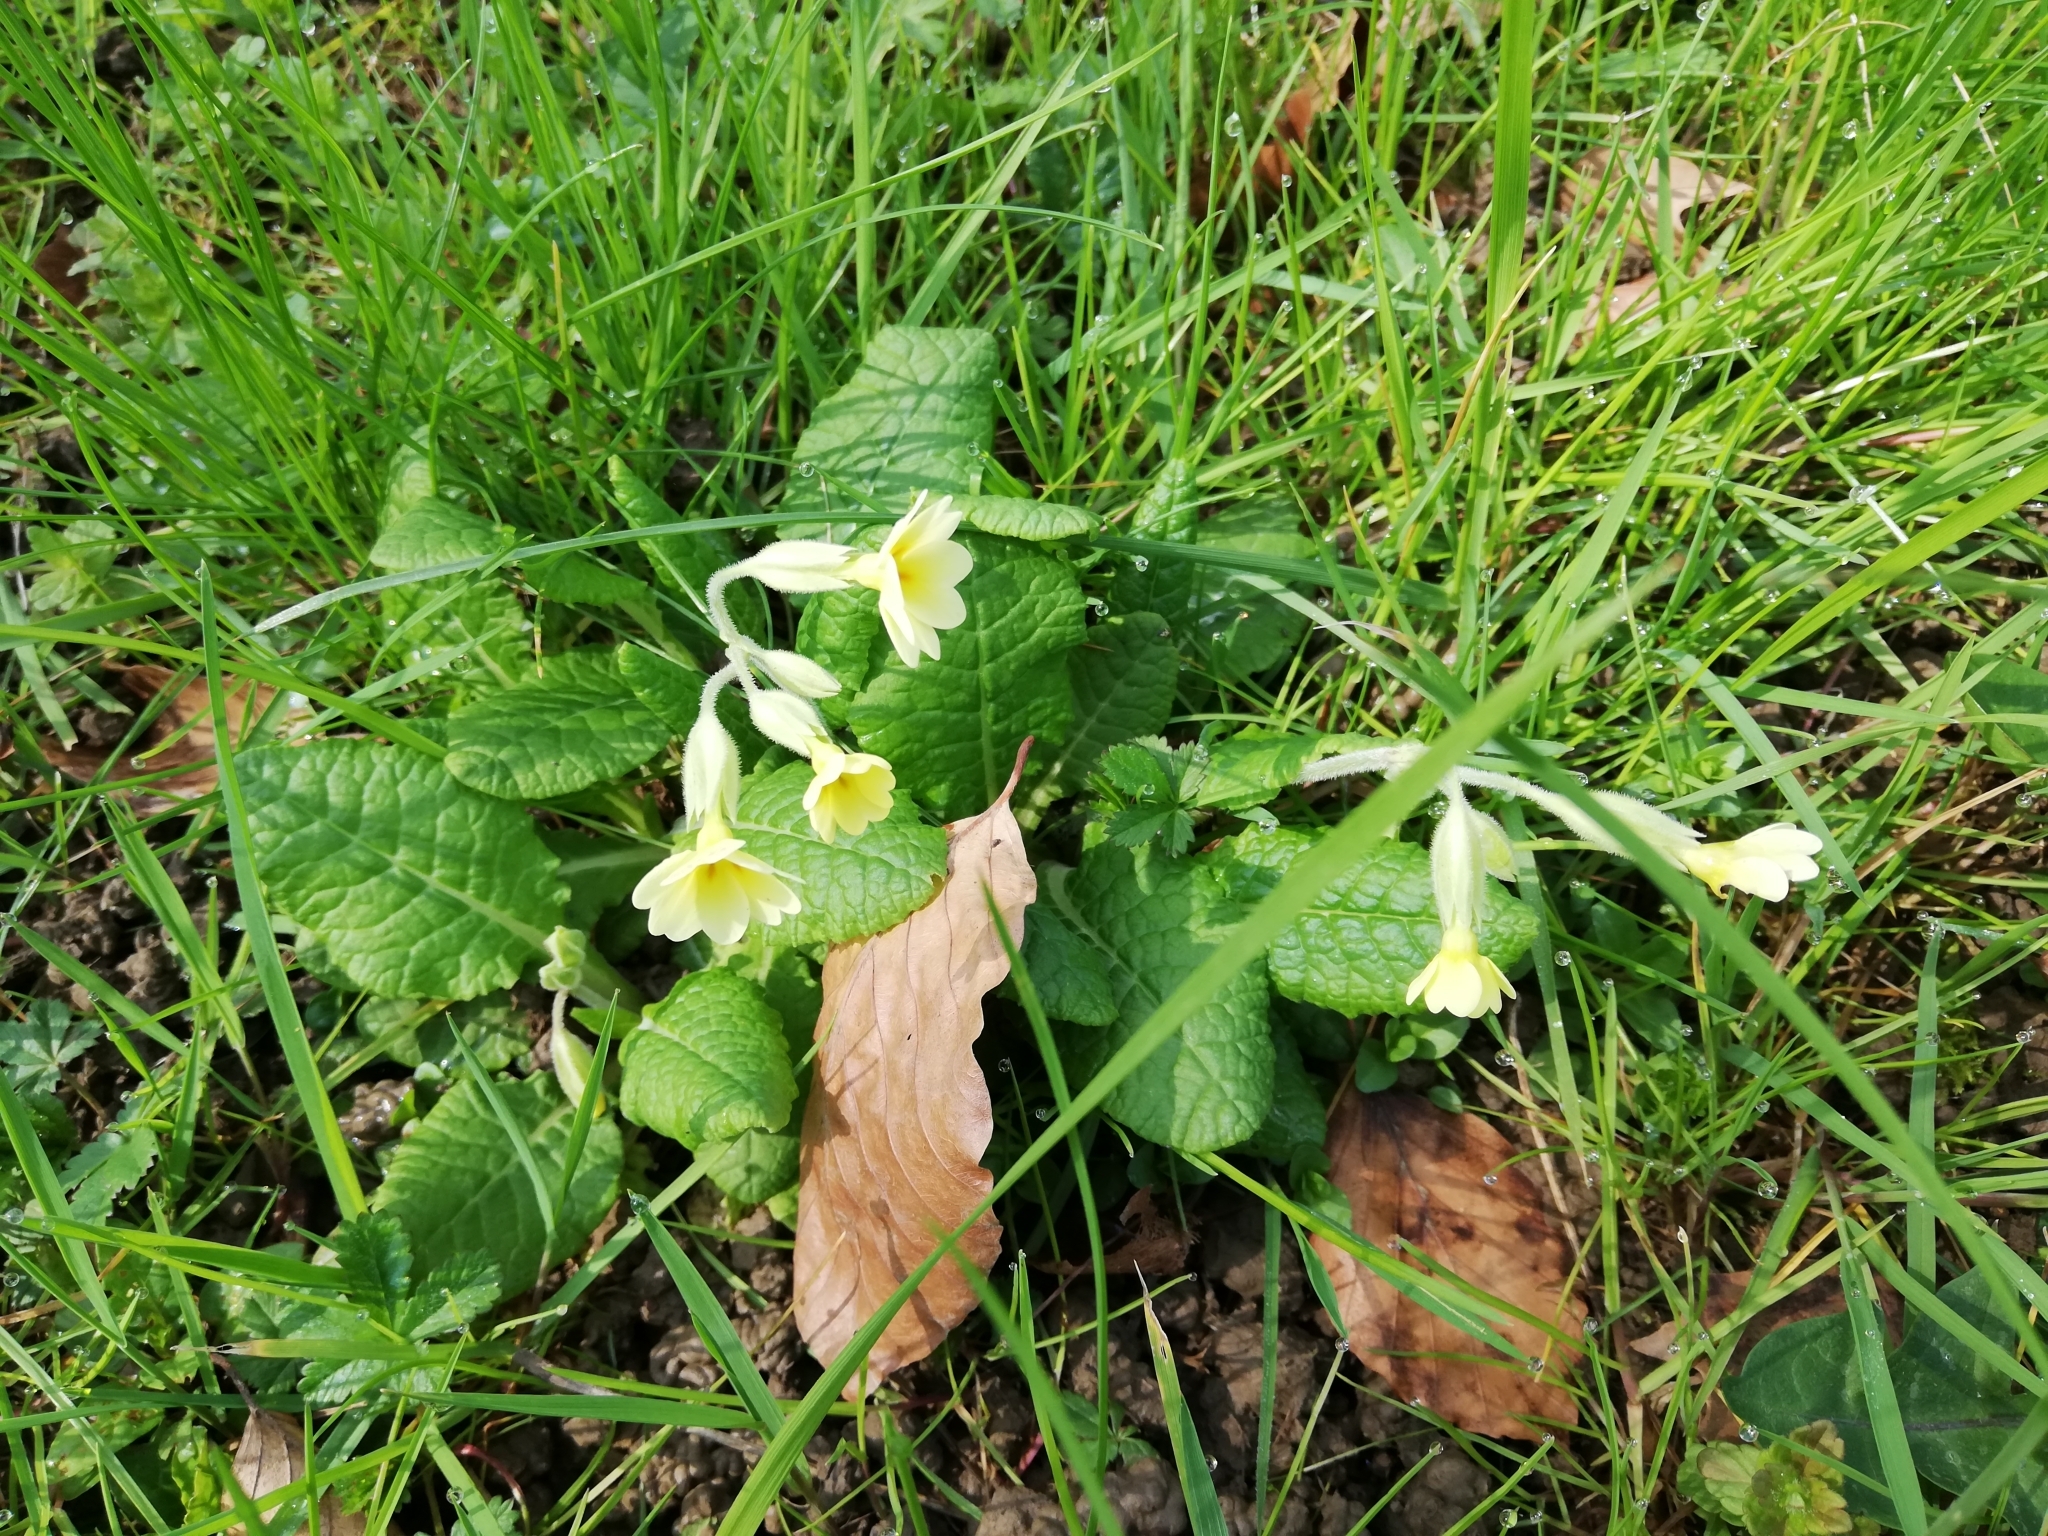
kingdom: Plantae
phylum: Tracheophyta
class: Magnoliopsida
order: Ericales
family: Primulaceae
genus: Primula
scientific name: Primula elatior
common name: Oxlip
